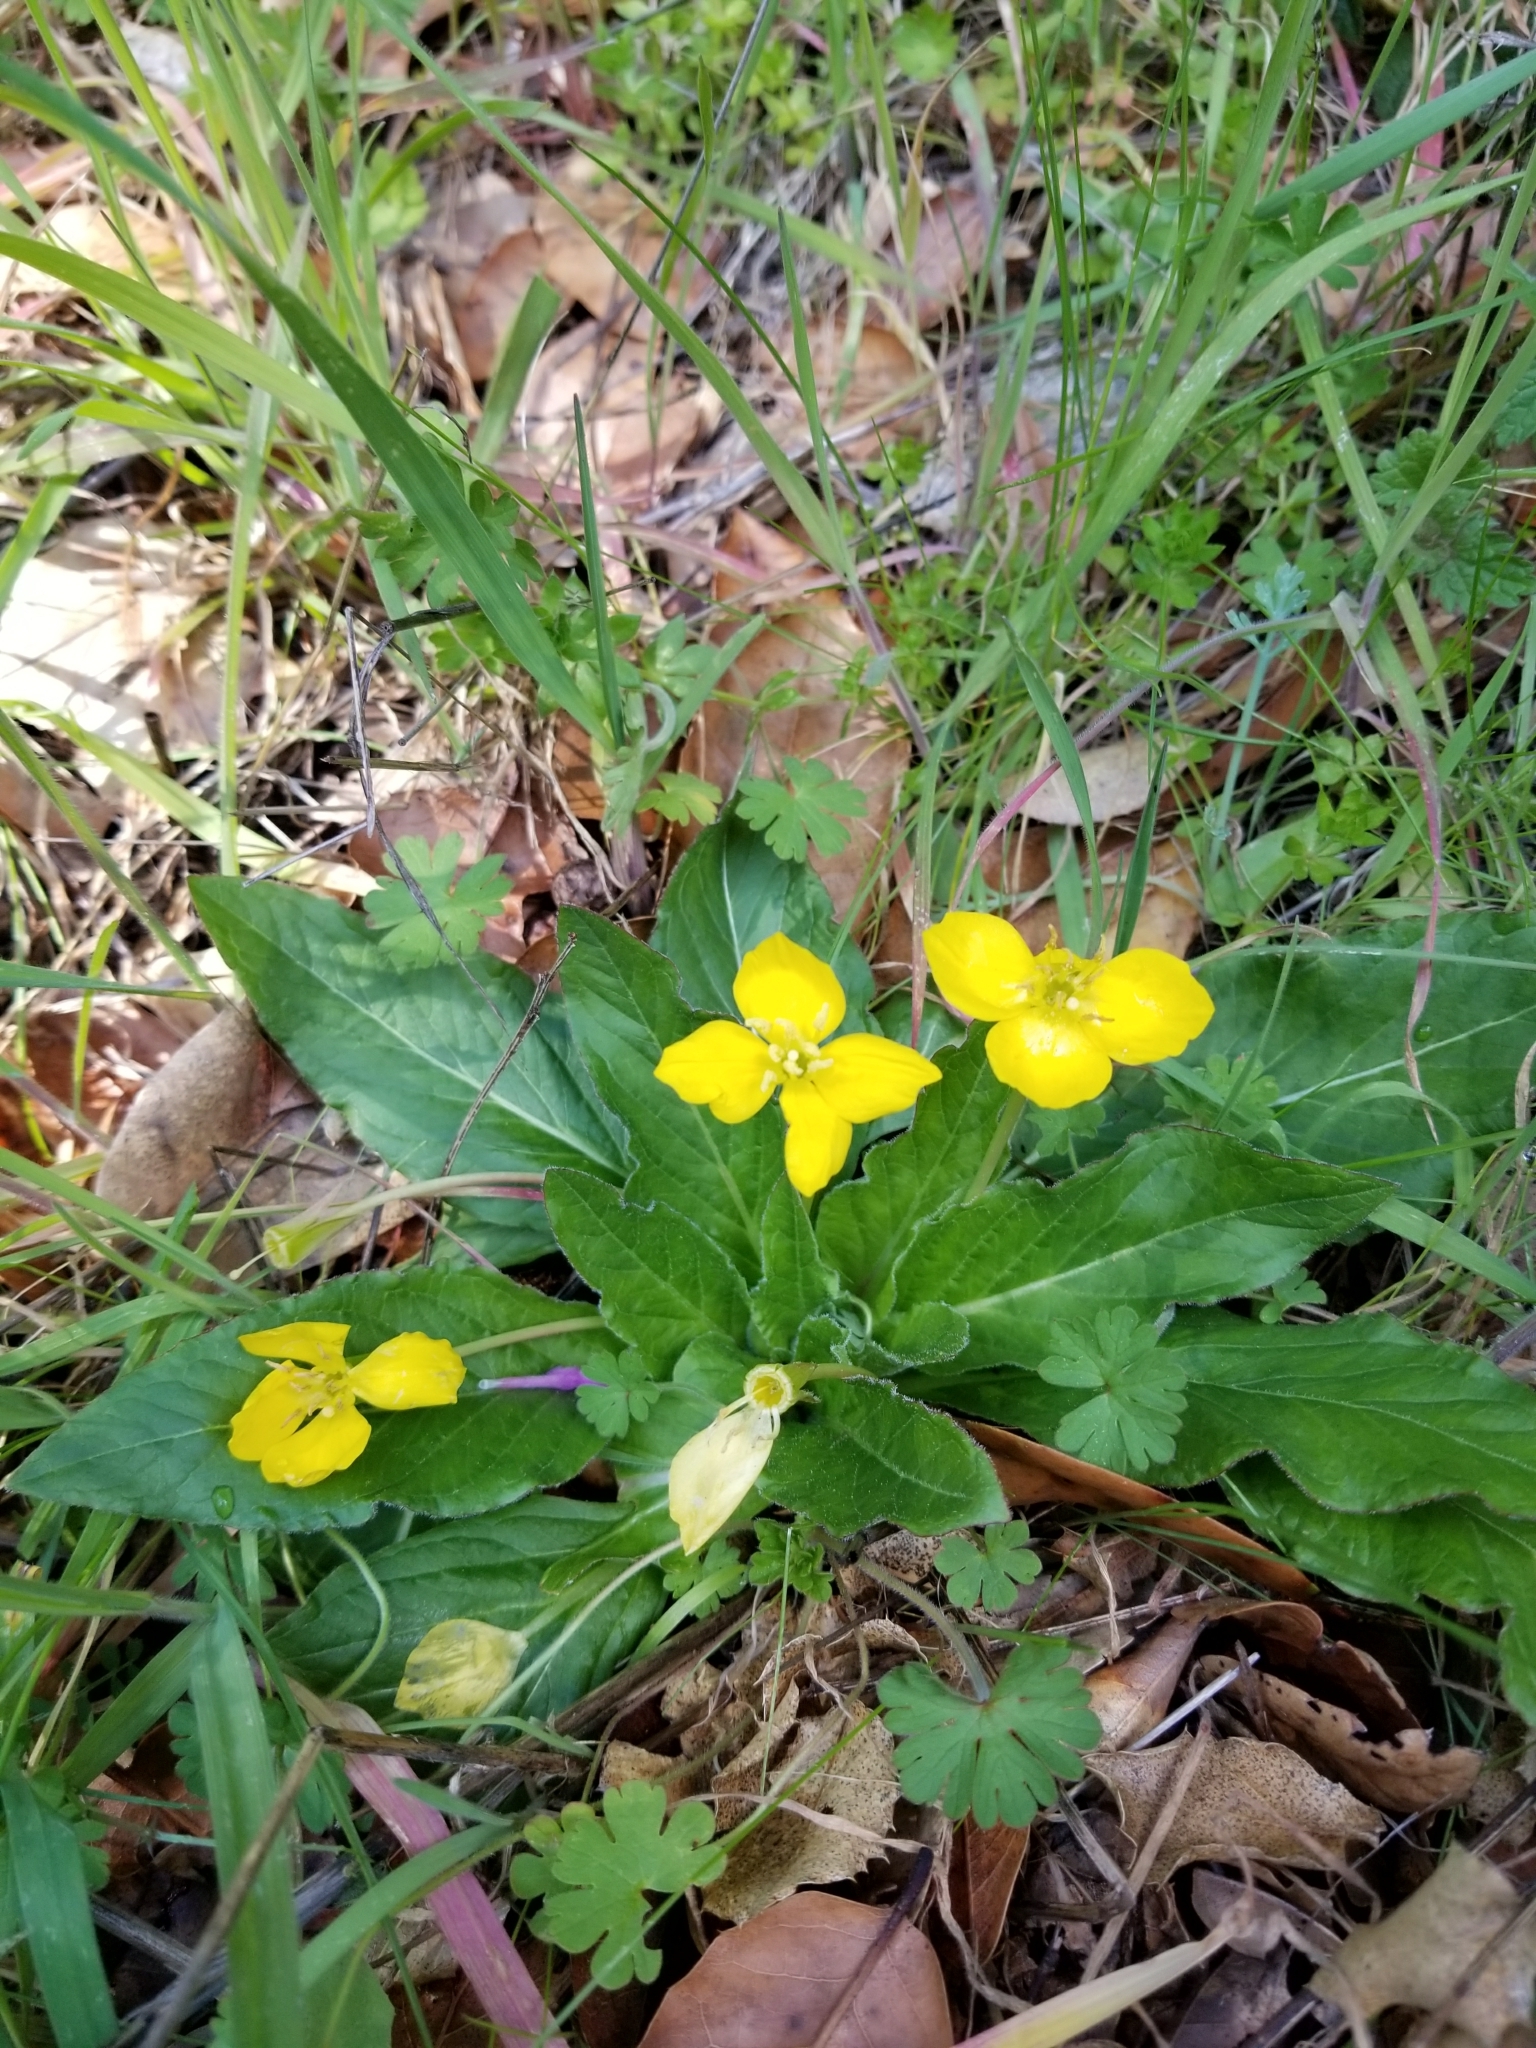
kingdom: Plantae
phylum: Tracheophyta
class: Magnoliopsida
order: Myrtales
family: Onagraceae
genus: Taraxia
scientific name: Taraxia ovata
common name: Goldeneggs
